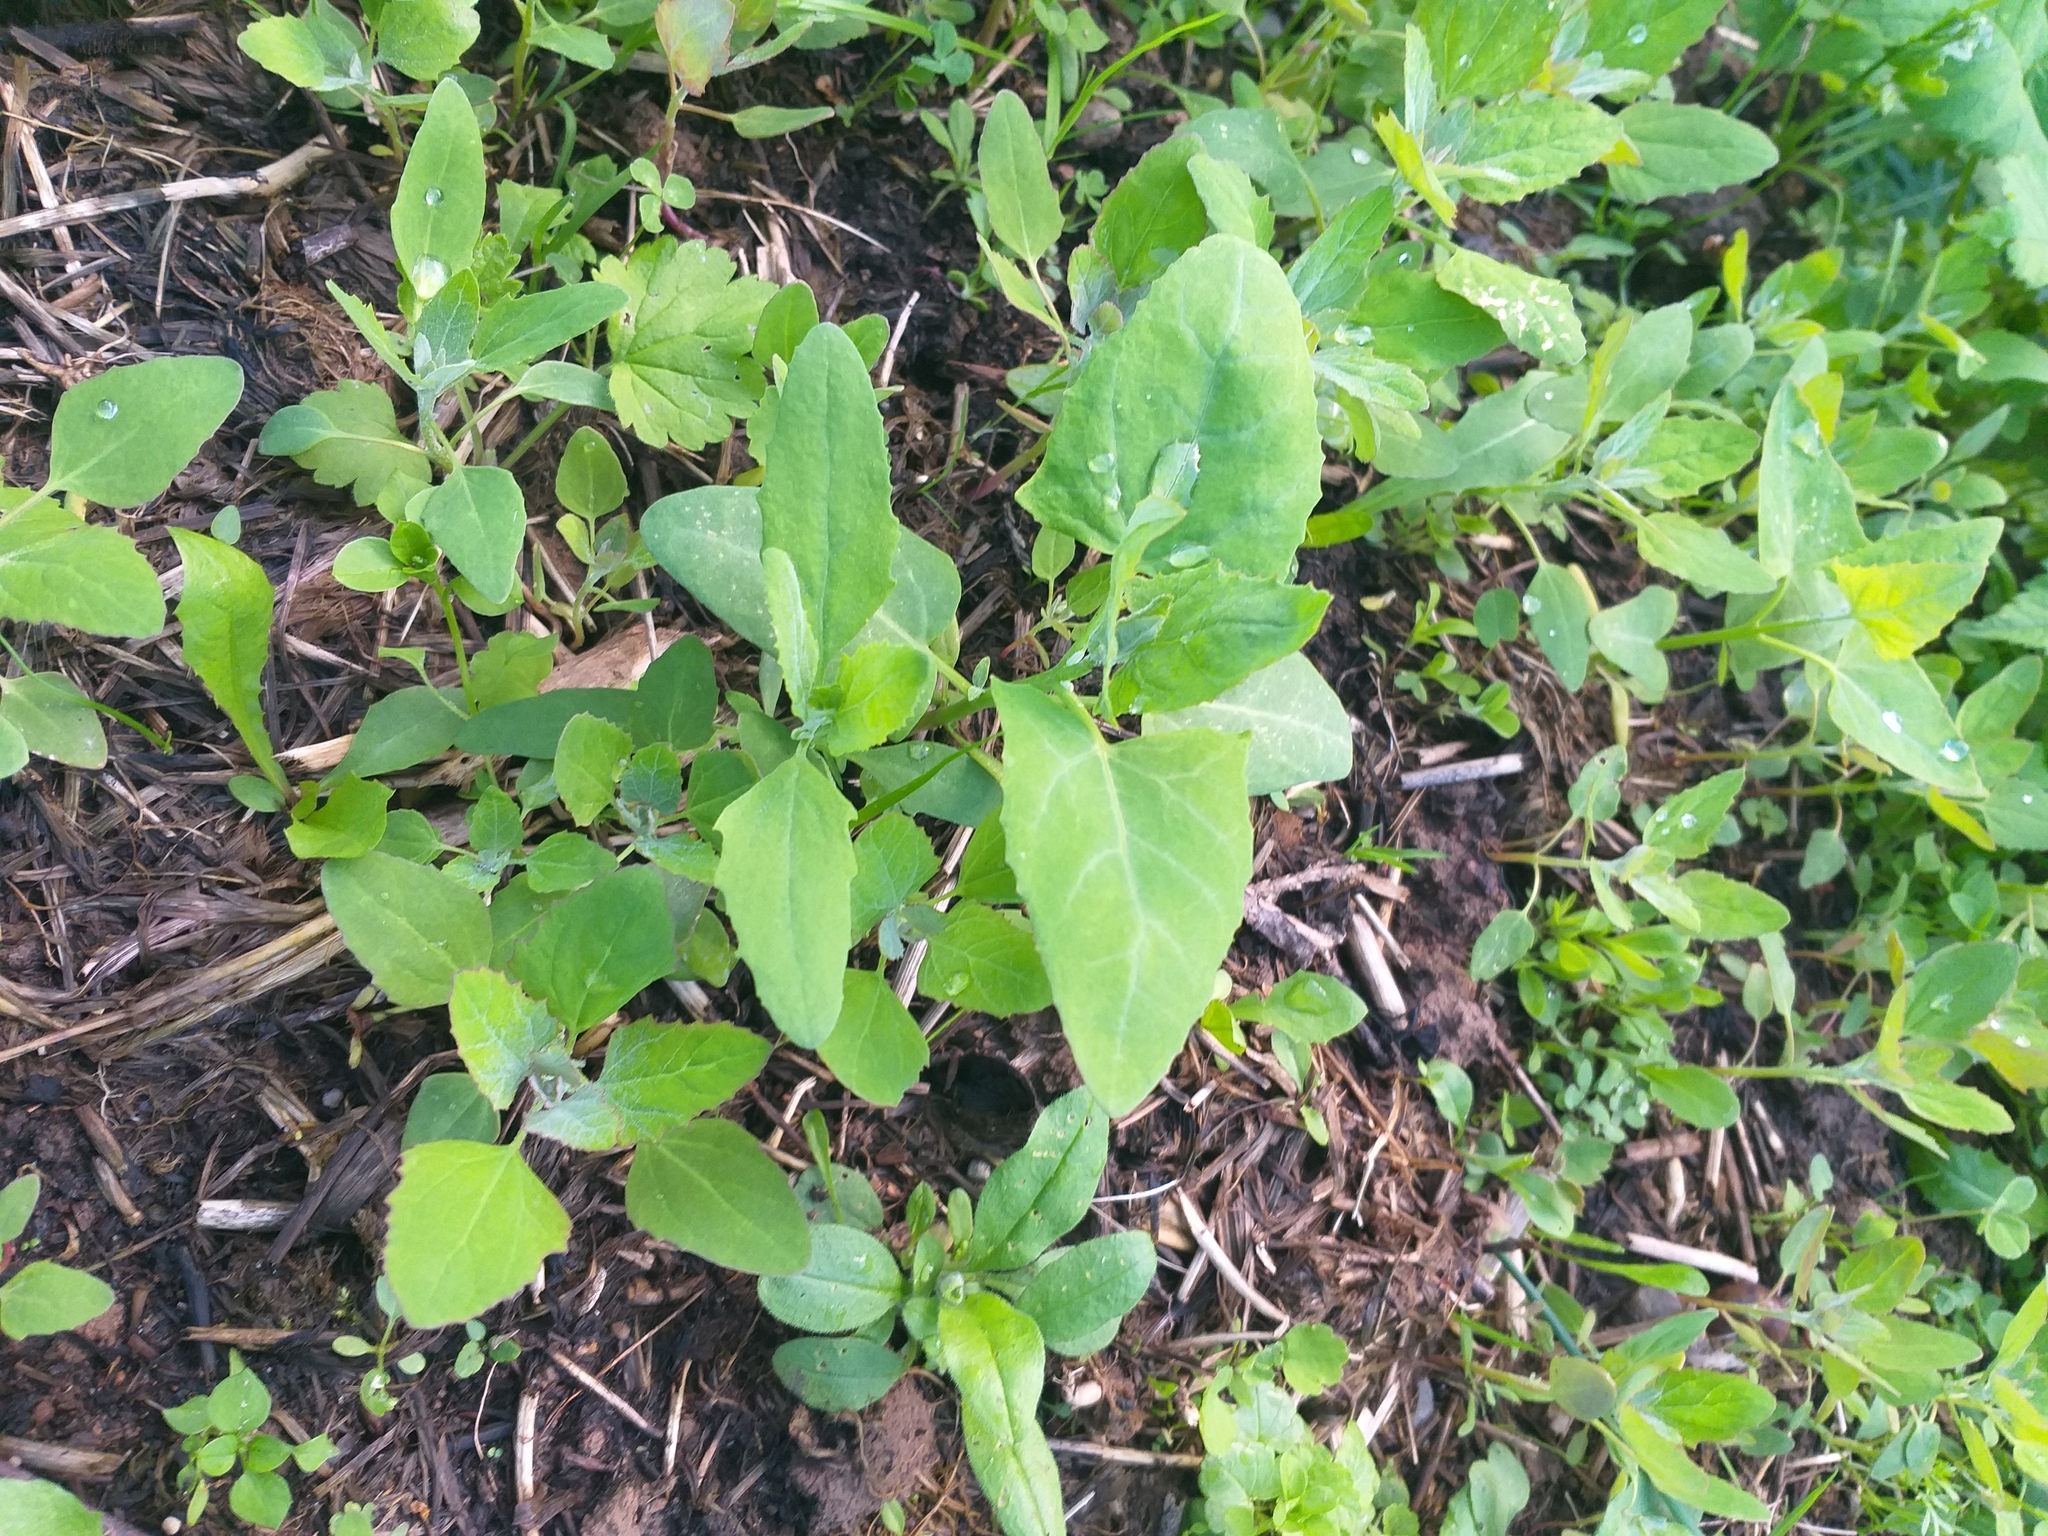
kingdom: Plantae
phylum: Tracheophyta
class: Magnoliopsida
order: Caryophyllales
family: Amaranthaceae
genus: Atriplex
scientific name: Atriplex prostrata
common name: Spear-leaved orache
